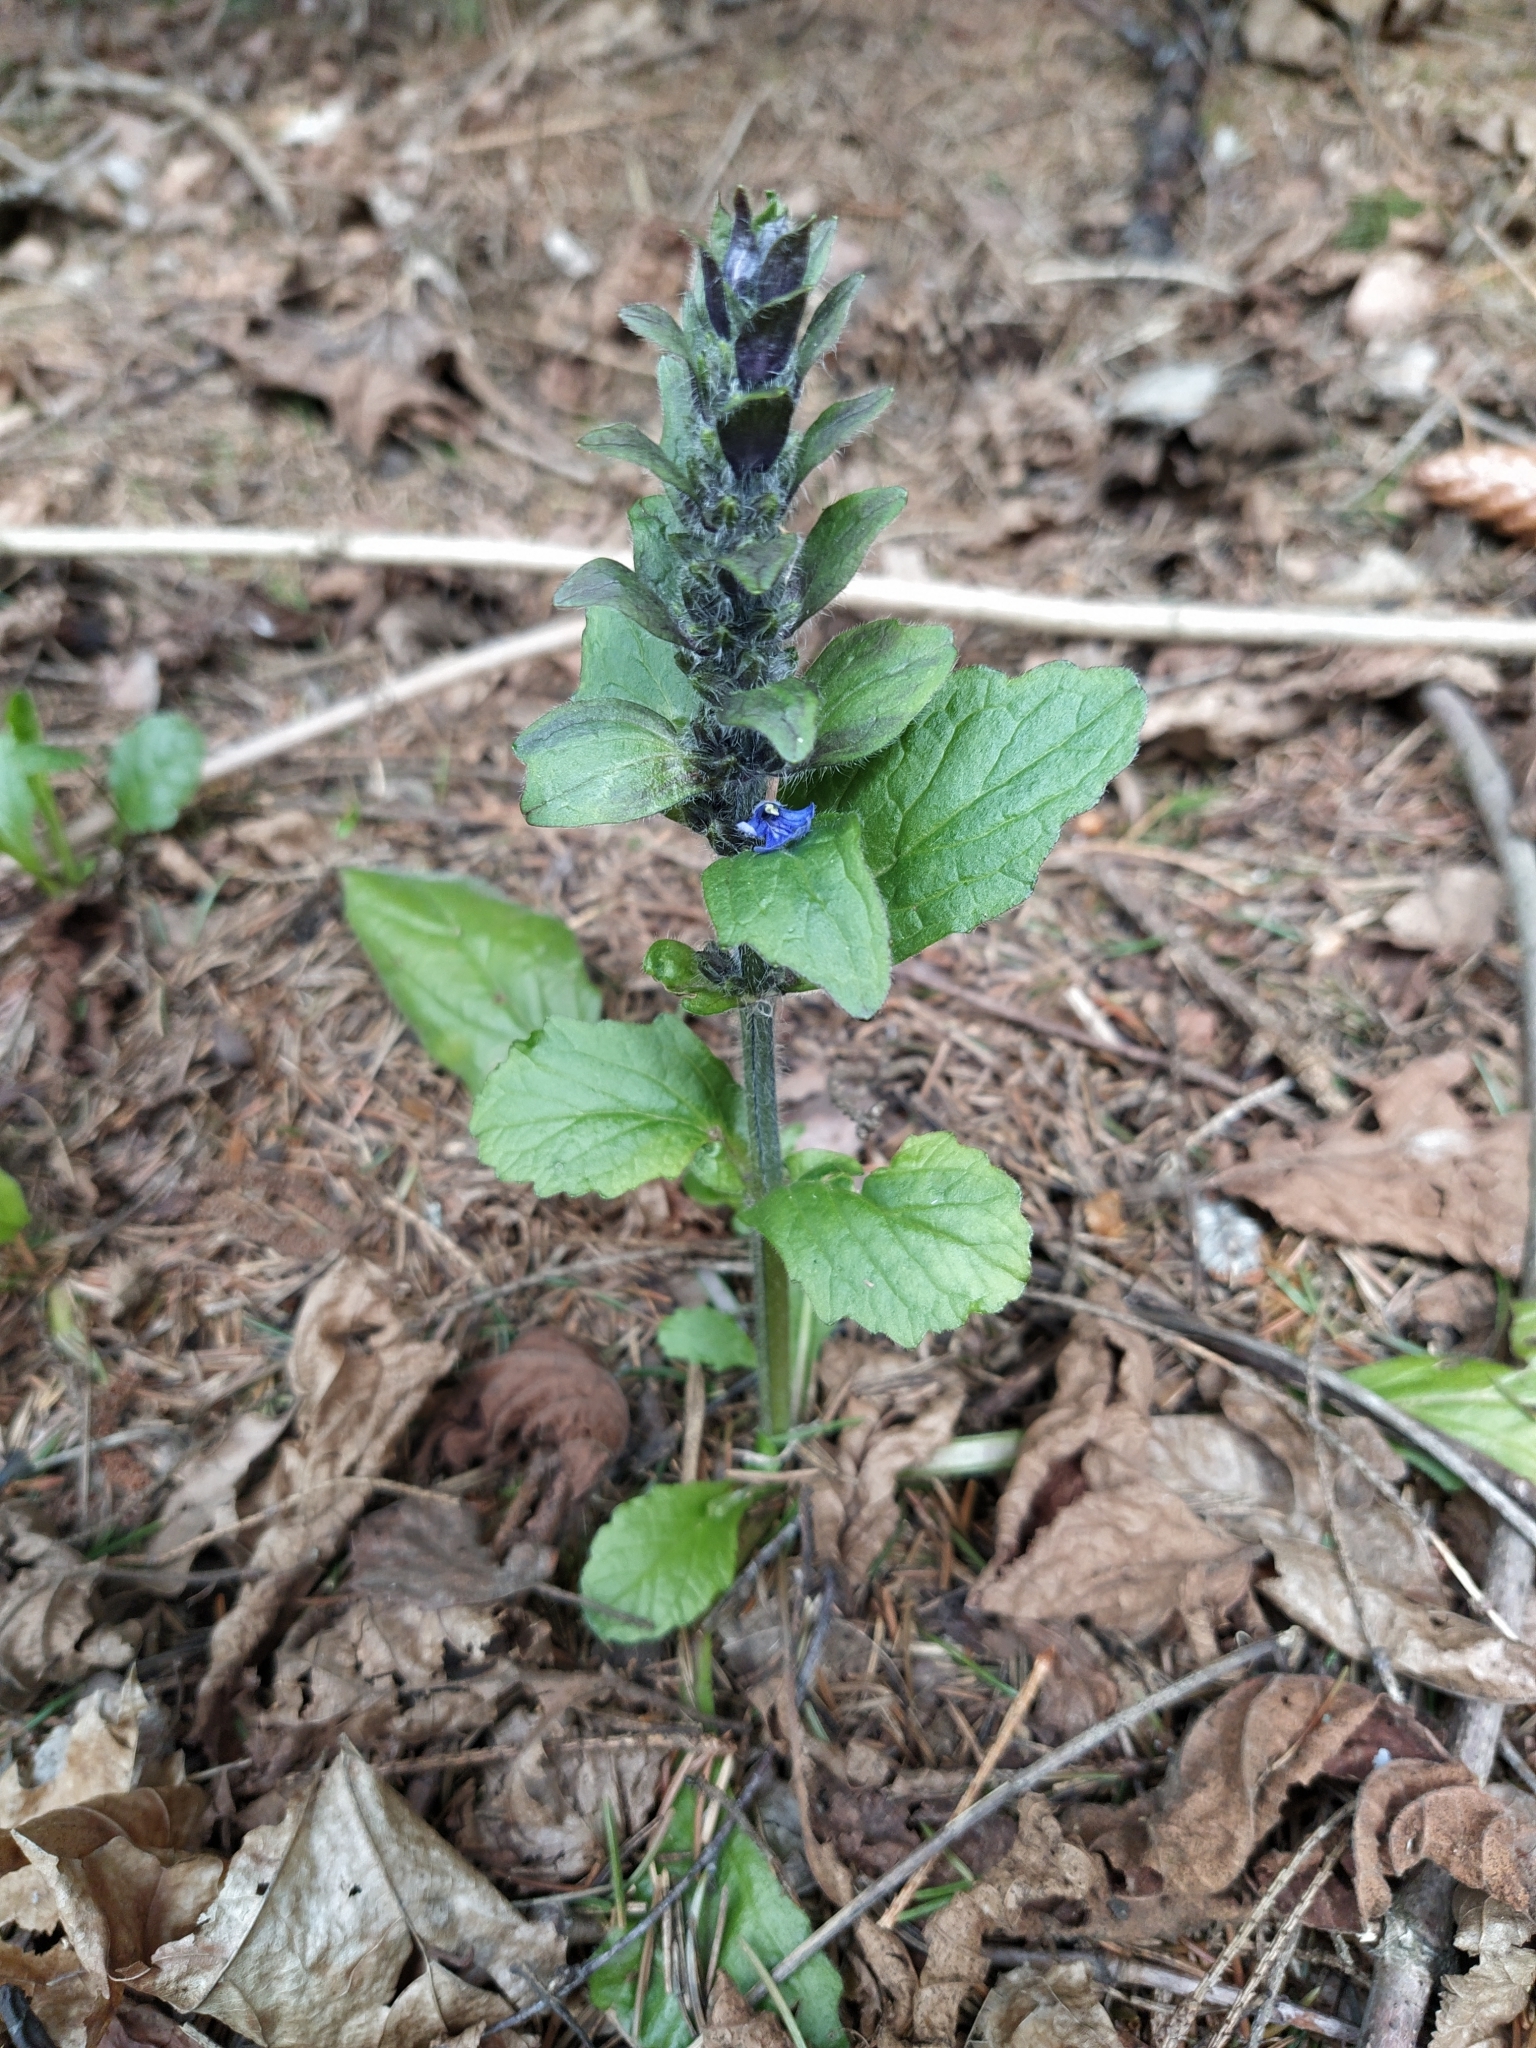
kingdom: Plantae
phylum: Tracheophyta
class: Magnoliopsida
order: Lamiales
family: Lamiaceae
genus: Ajuga
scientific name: Ajuga reptans
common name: Bugle
